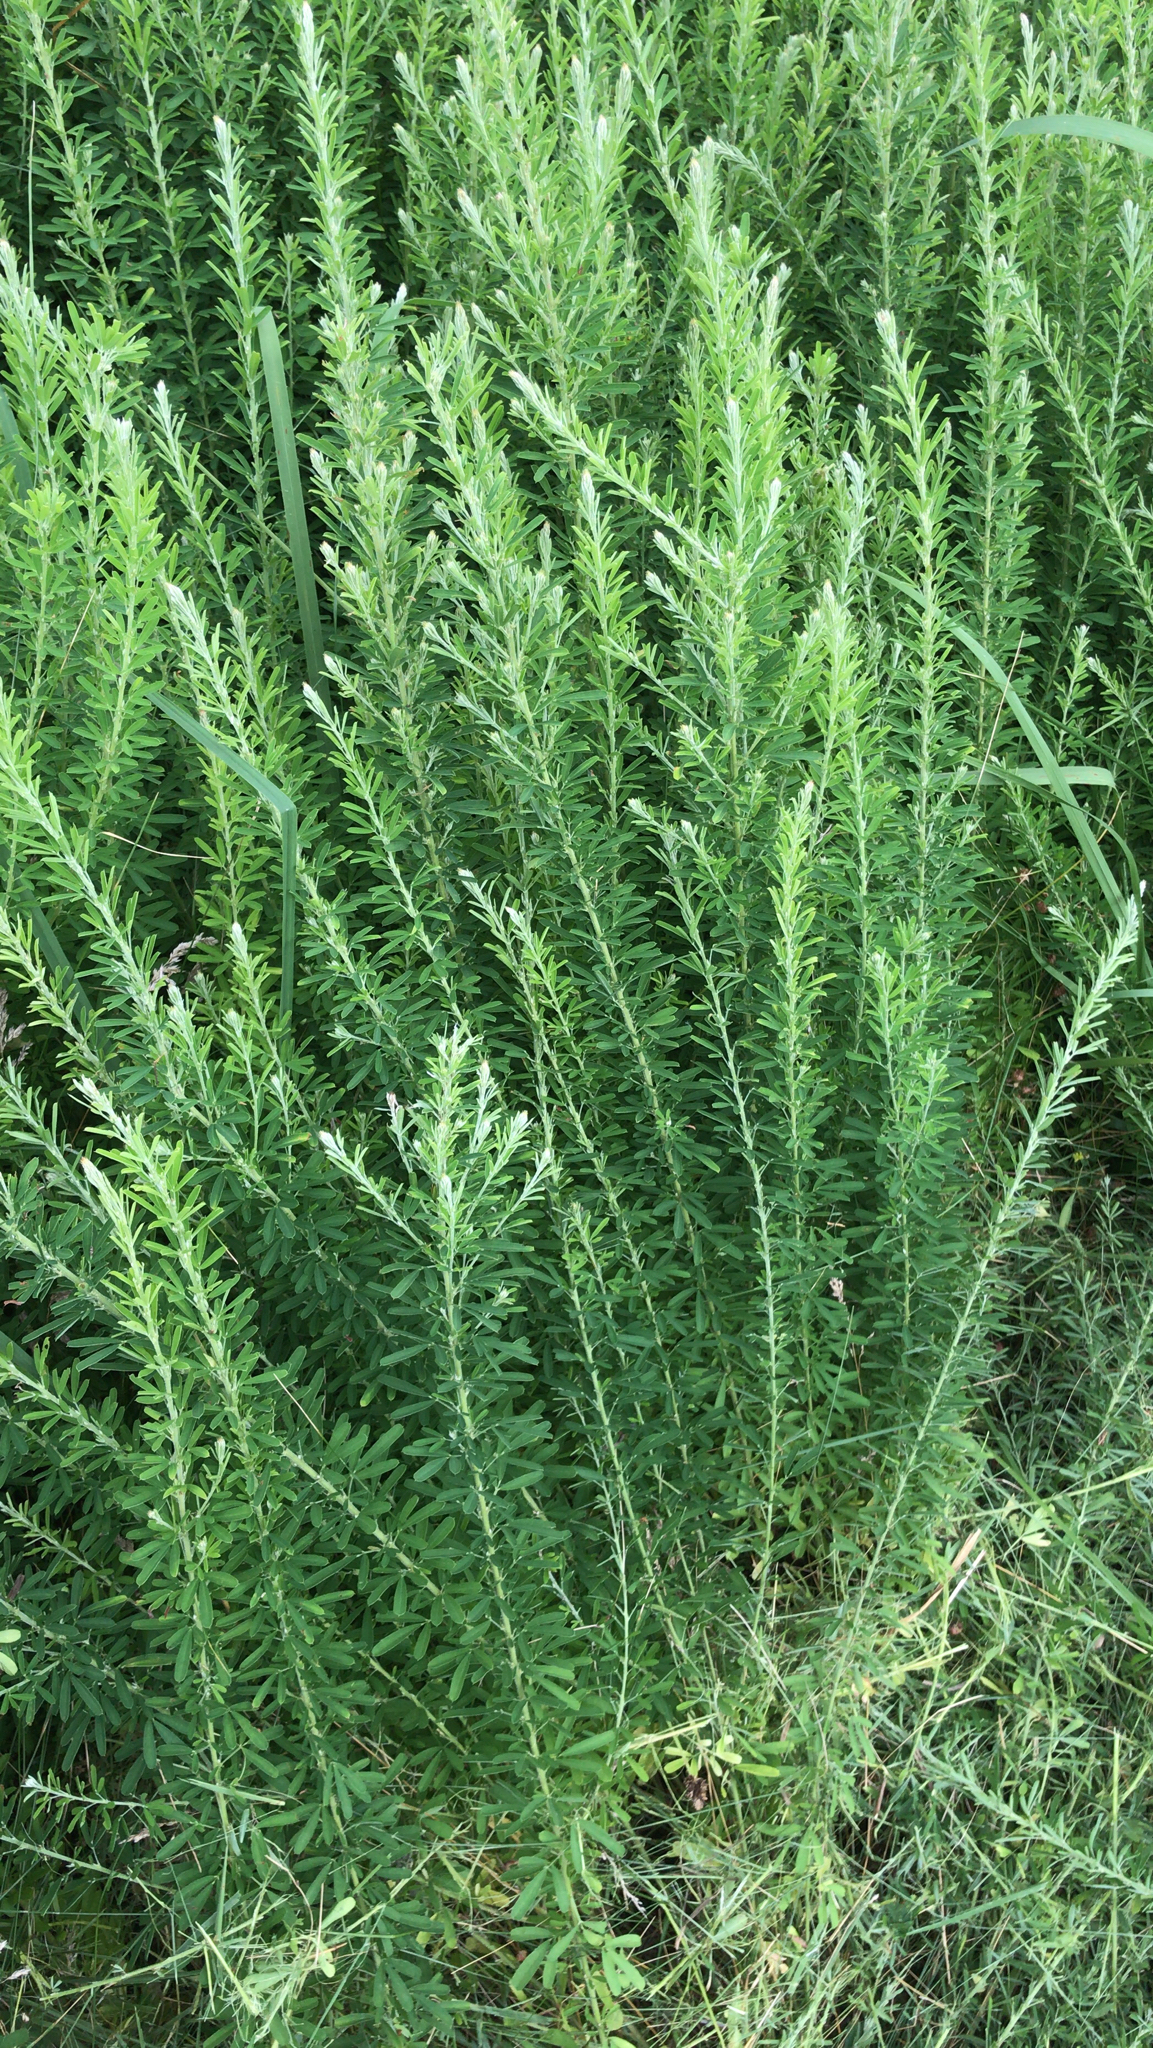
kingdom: Plantae
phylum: Tracheophyta
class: Magnoliopsida
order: Fabales
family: Fabaceae
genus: Lespedeza
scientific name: Lespedeza cuneata
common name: Chinese bush-clover
